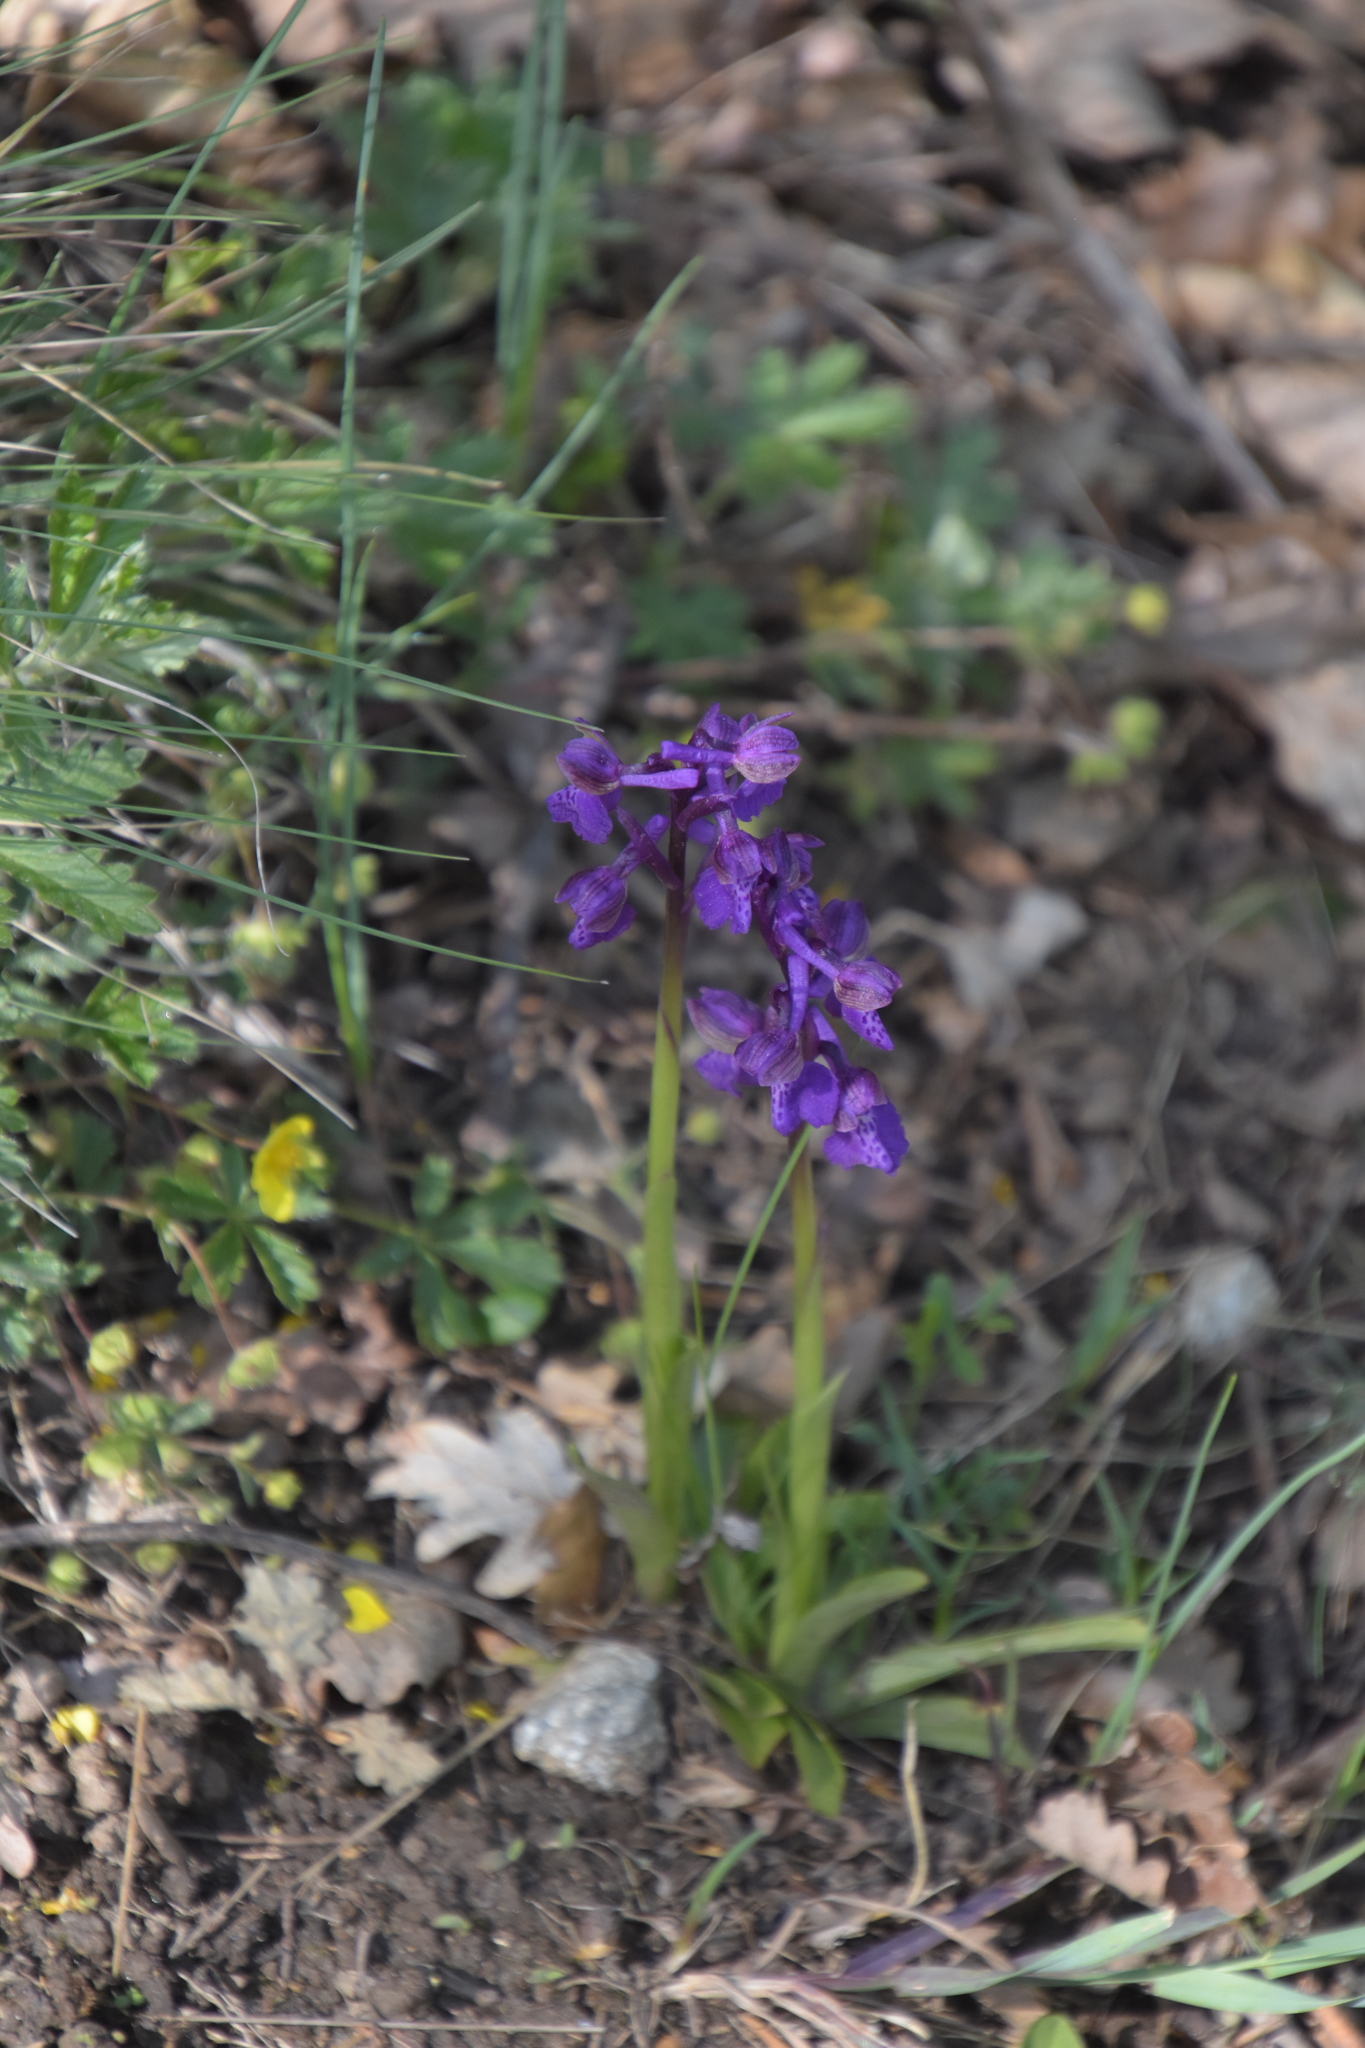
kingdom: Plantae
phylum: Tracheophyta
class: Liliopsida
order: Asparagales
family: Orchidaceae
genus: Anacamptis
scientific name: Anacamptis morio
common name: Green-winged orchid
